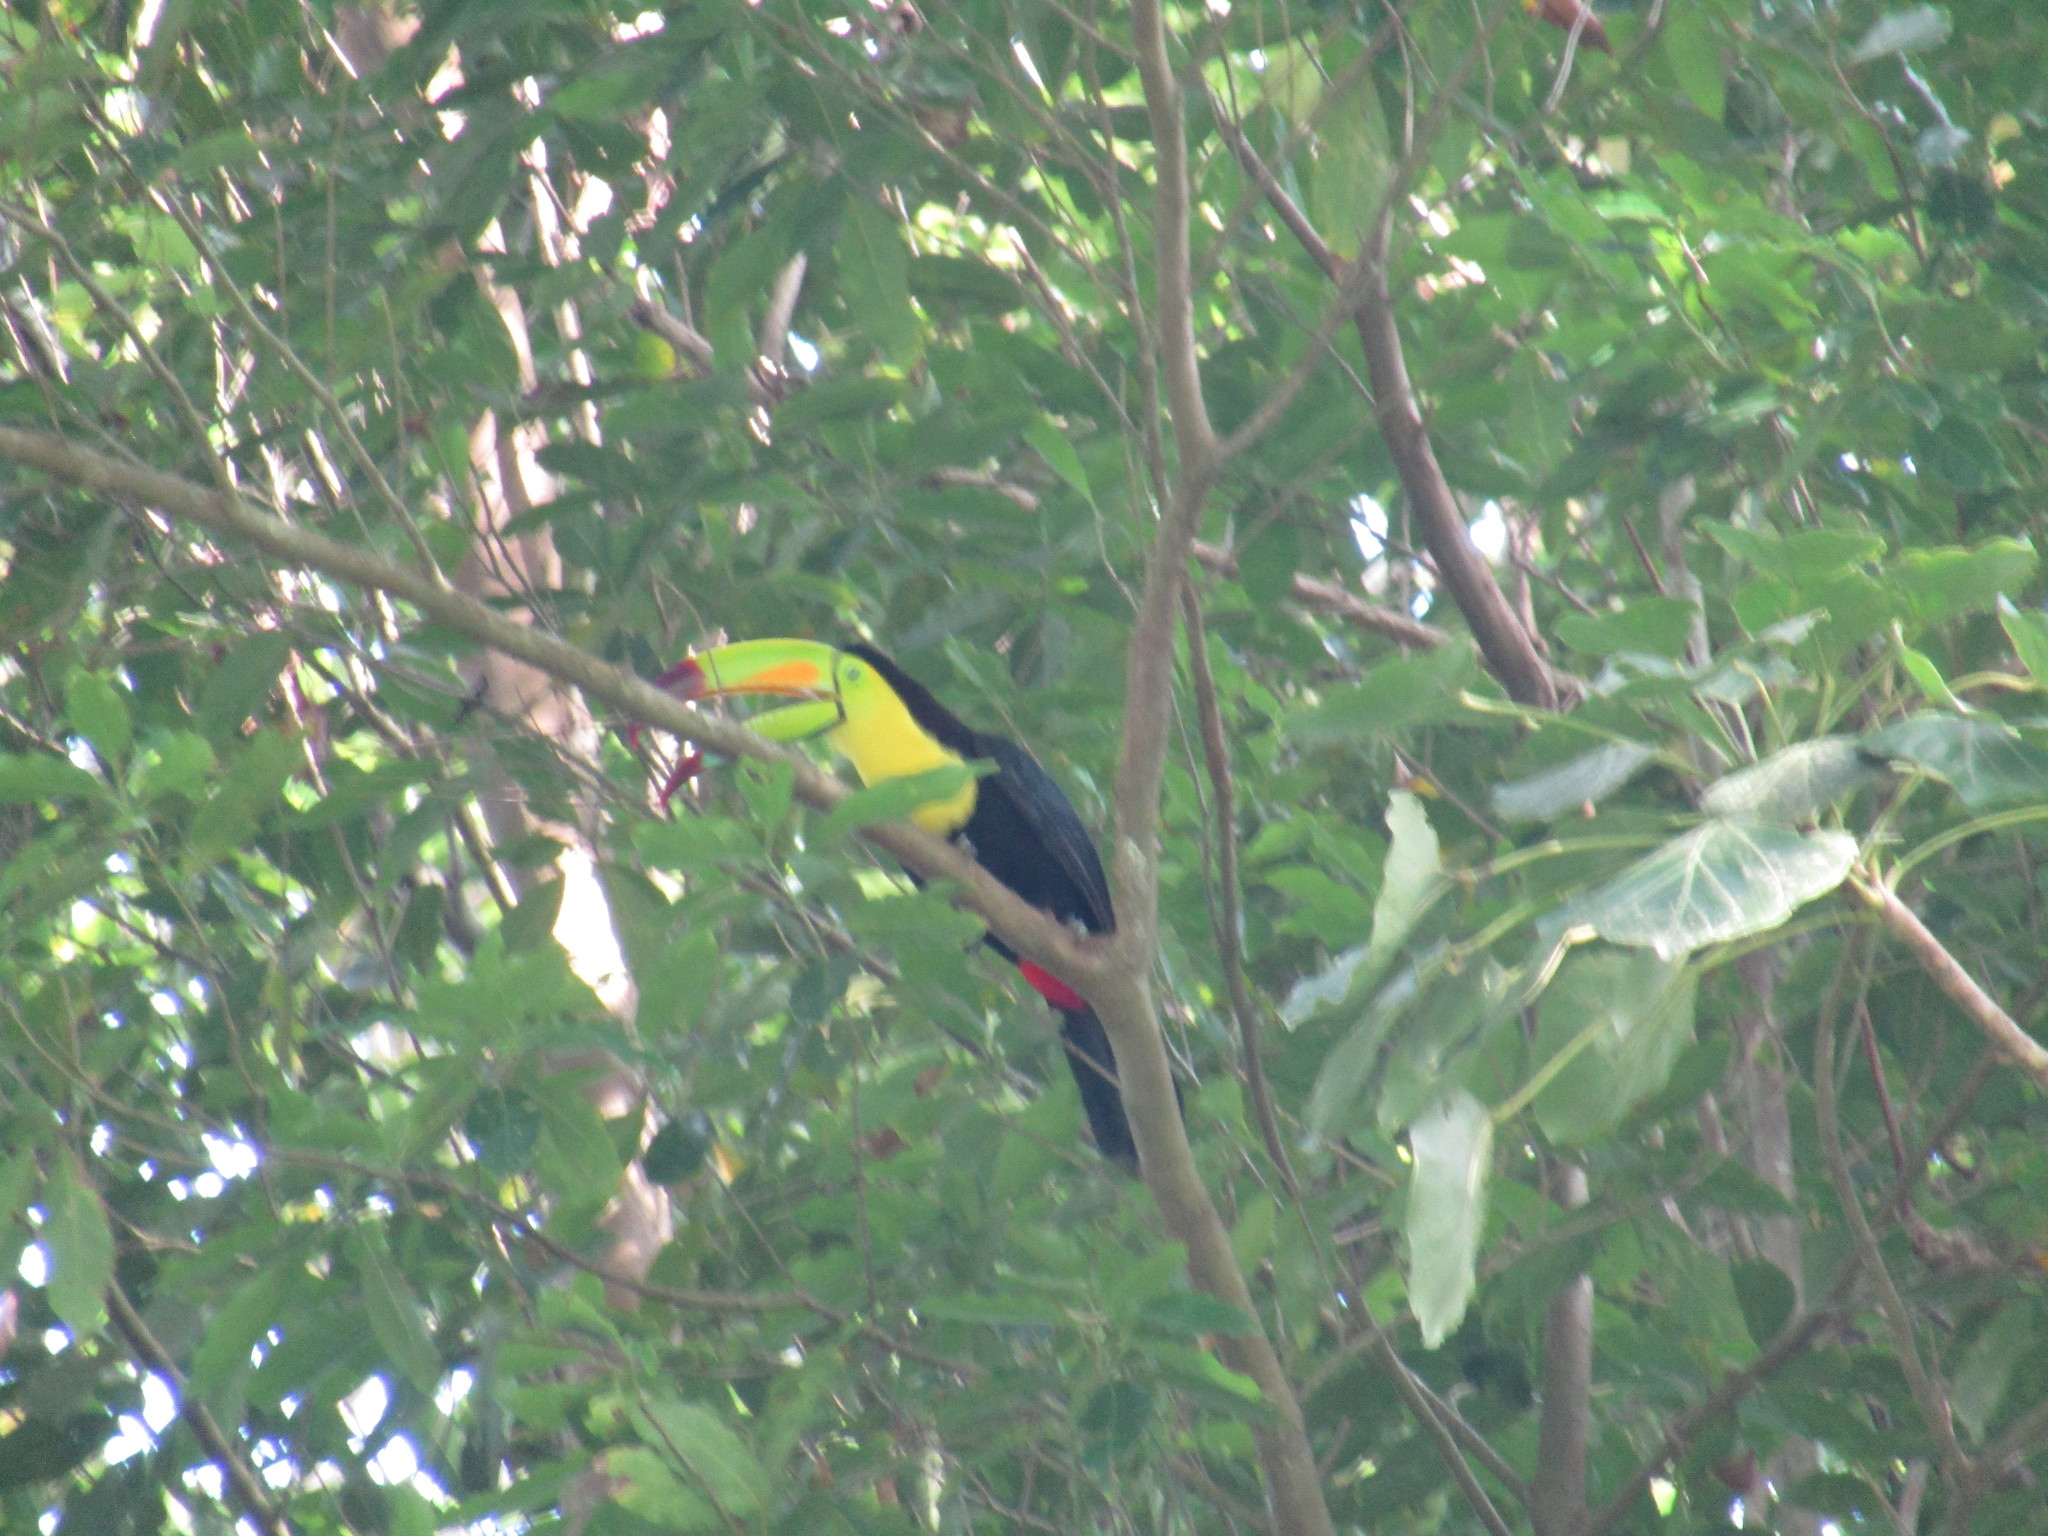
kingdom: Animalia
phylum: Chordata
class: Aves
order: Piciformes
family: Ramphastidae
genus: Ramphastos
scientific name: Ramphastos sulfuratus
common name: Keel-billed toucan
